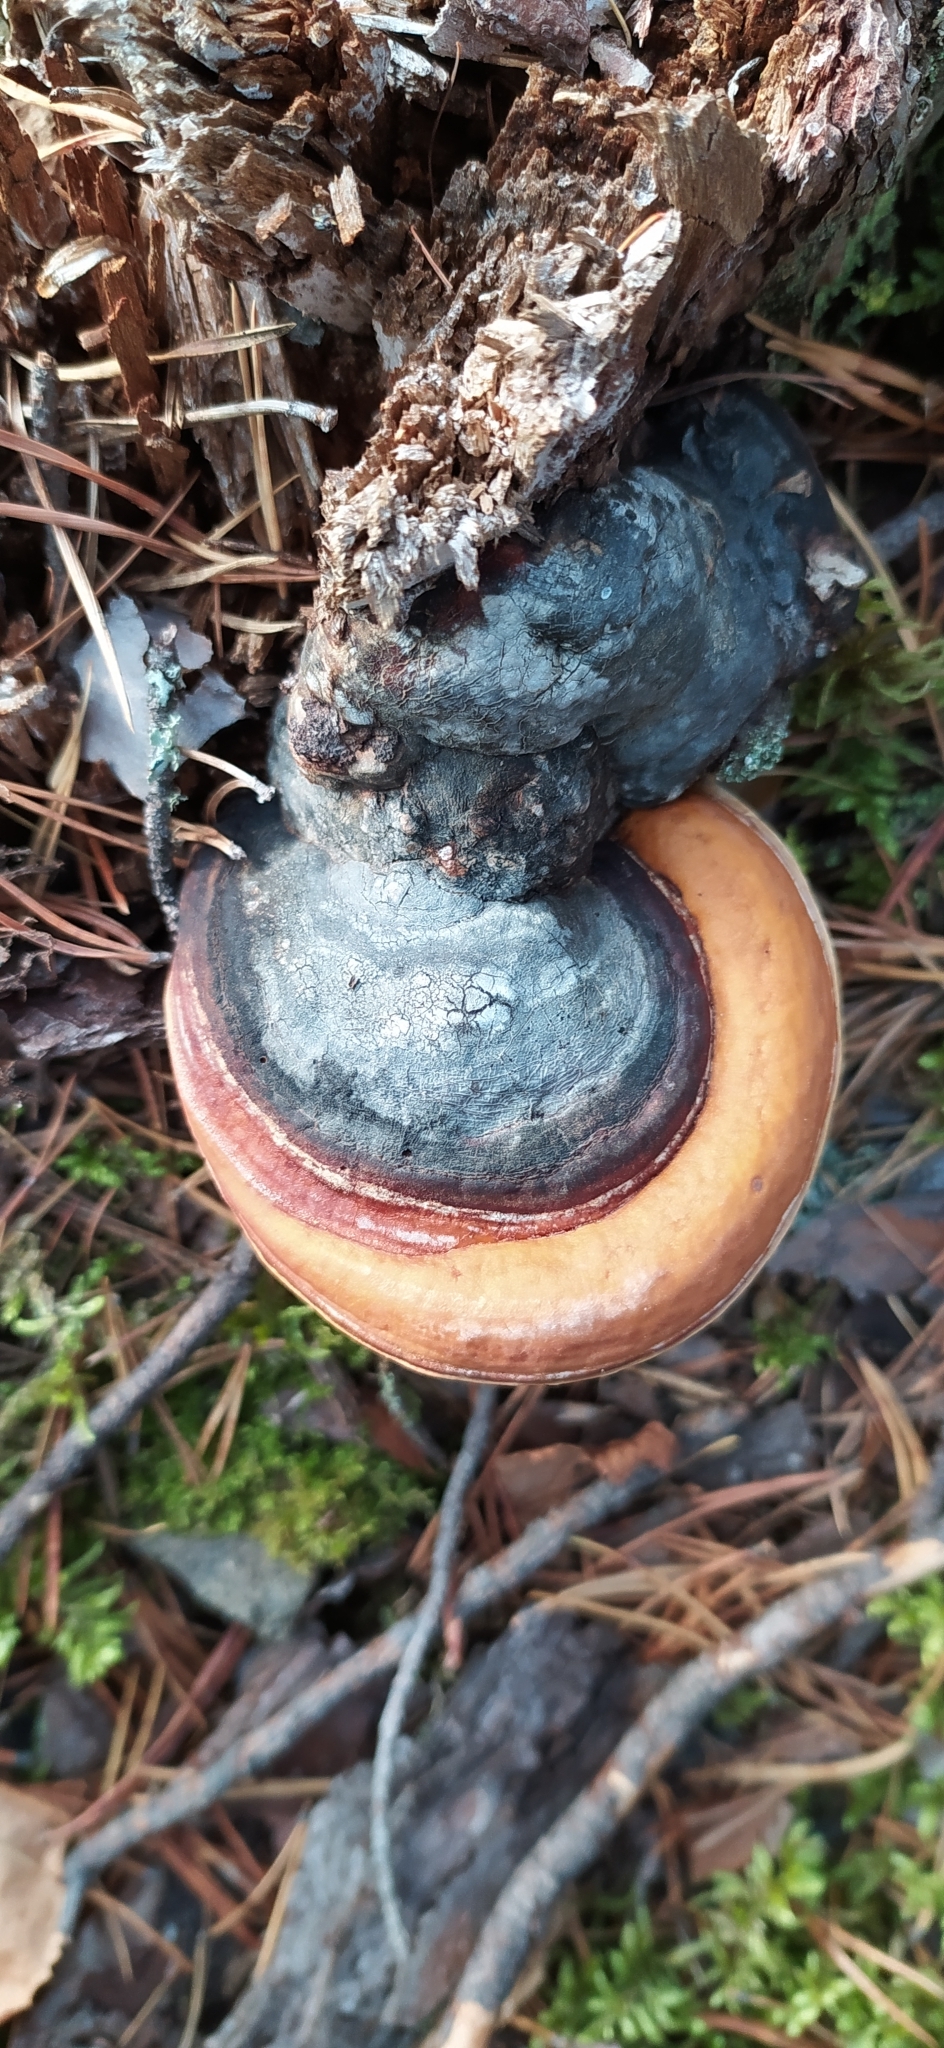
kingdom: Fungi
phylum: Basidiomycota
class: Agaricomycetes
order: Polyporales
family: Fomitopsidaceae
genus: Fomitopsis
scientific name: Fomitopsis pinicola
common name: Red-belted bracket
